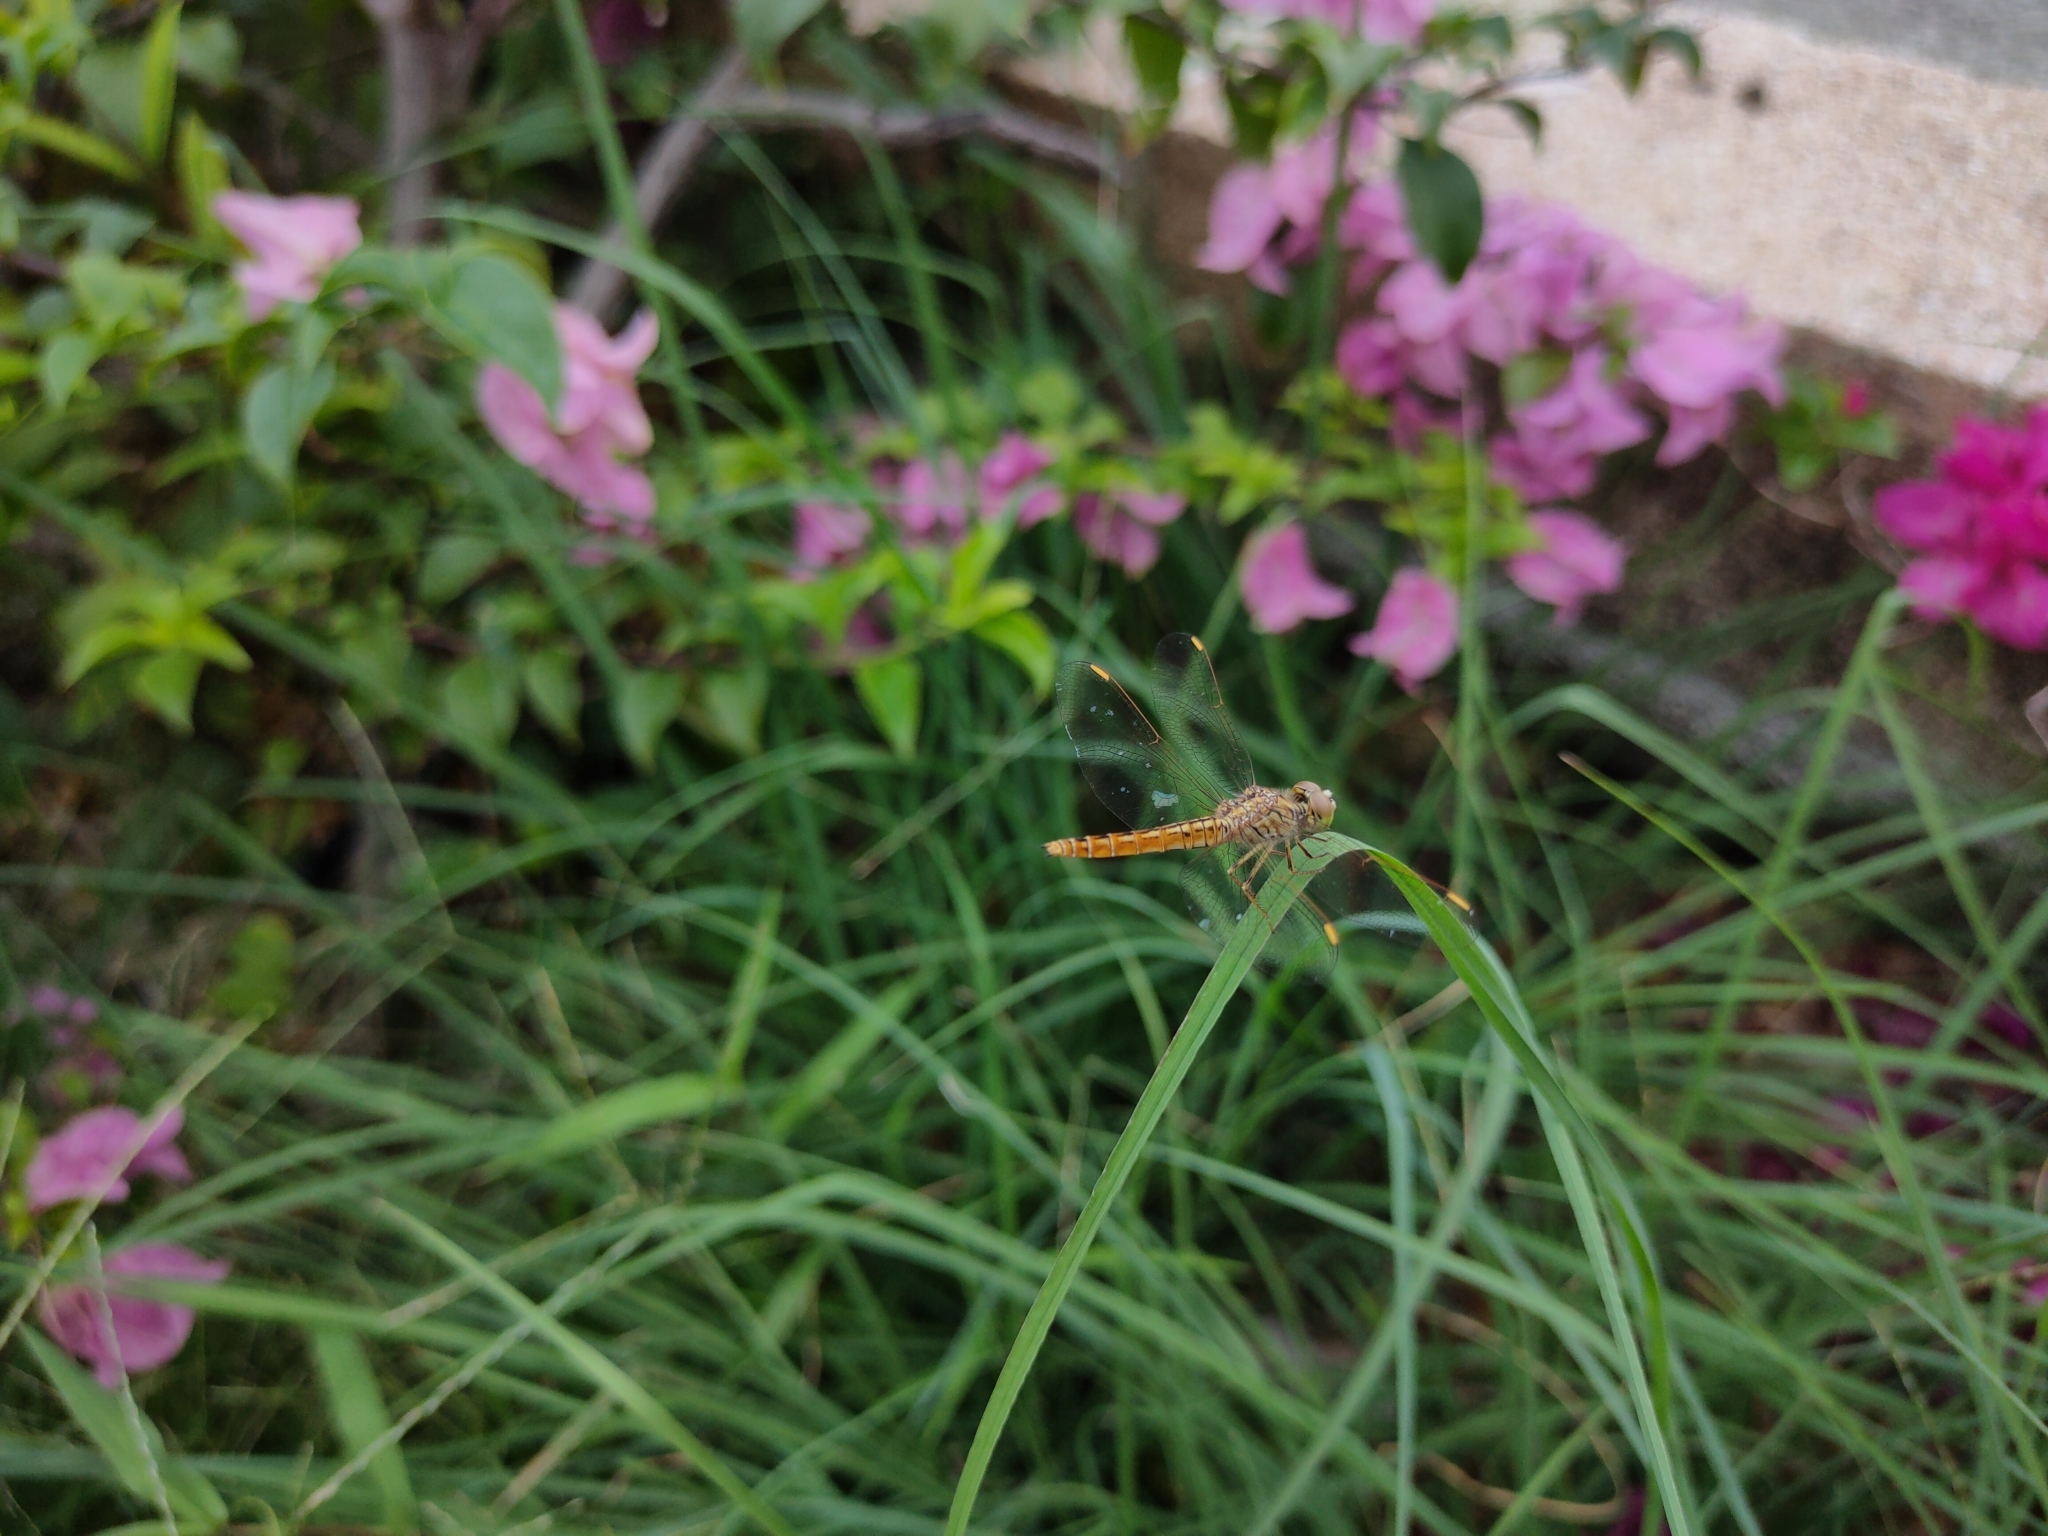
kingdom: Animalia
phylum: Arthropoda
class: Insecta
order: Odonata
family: Libellulidae
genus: Brachythemis
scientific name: Brachythemis contaminata
